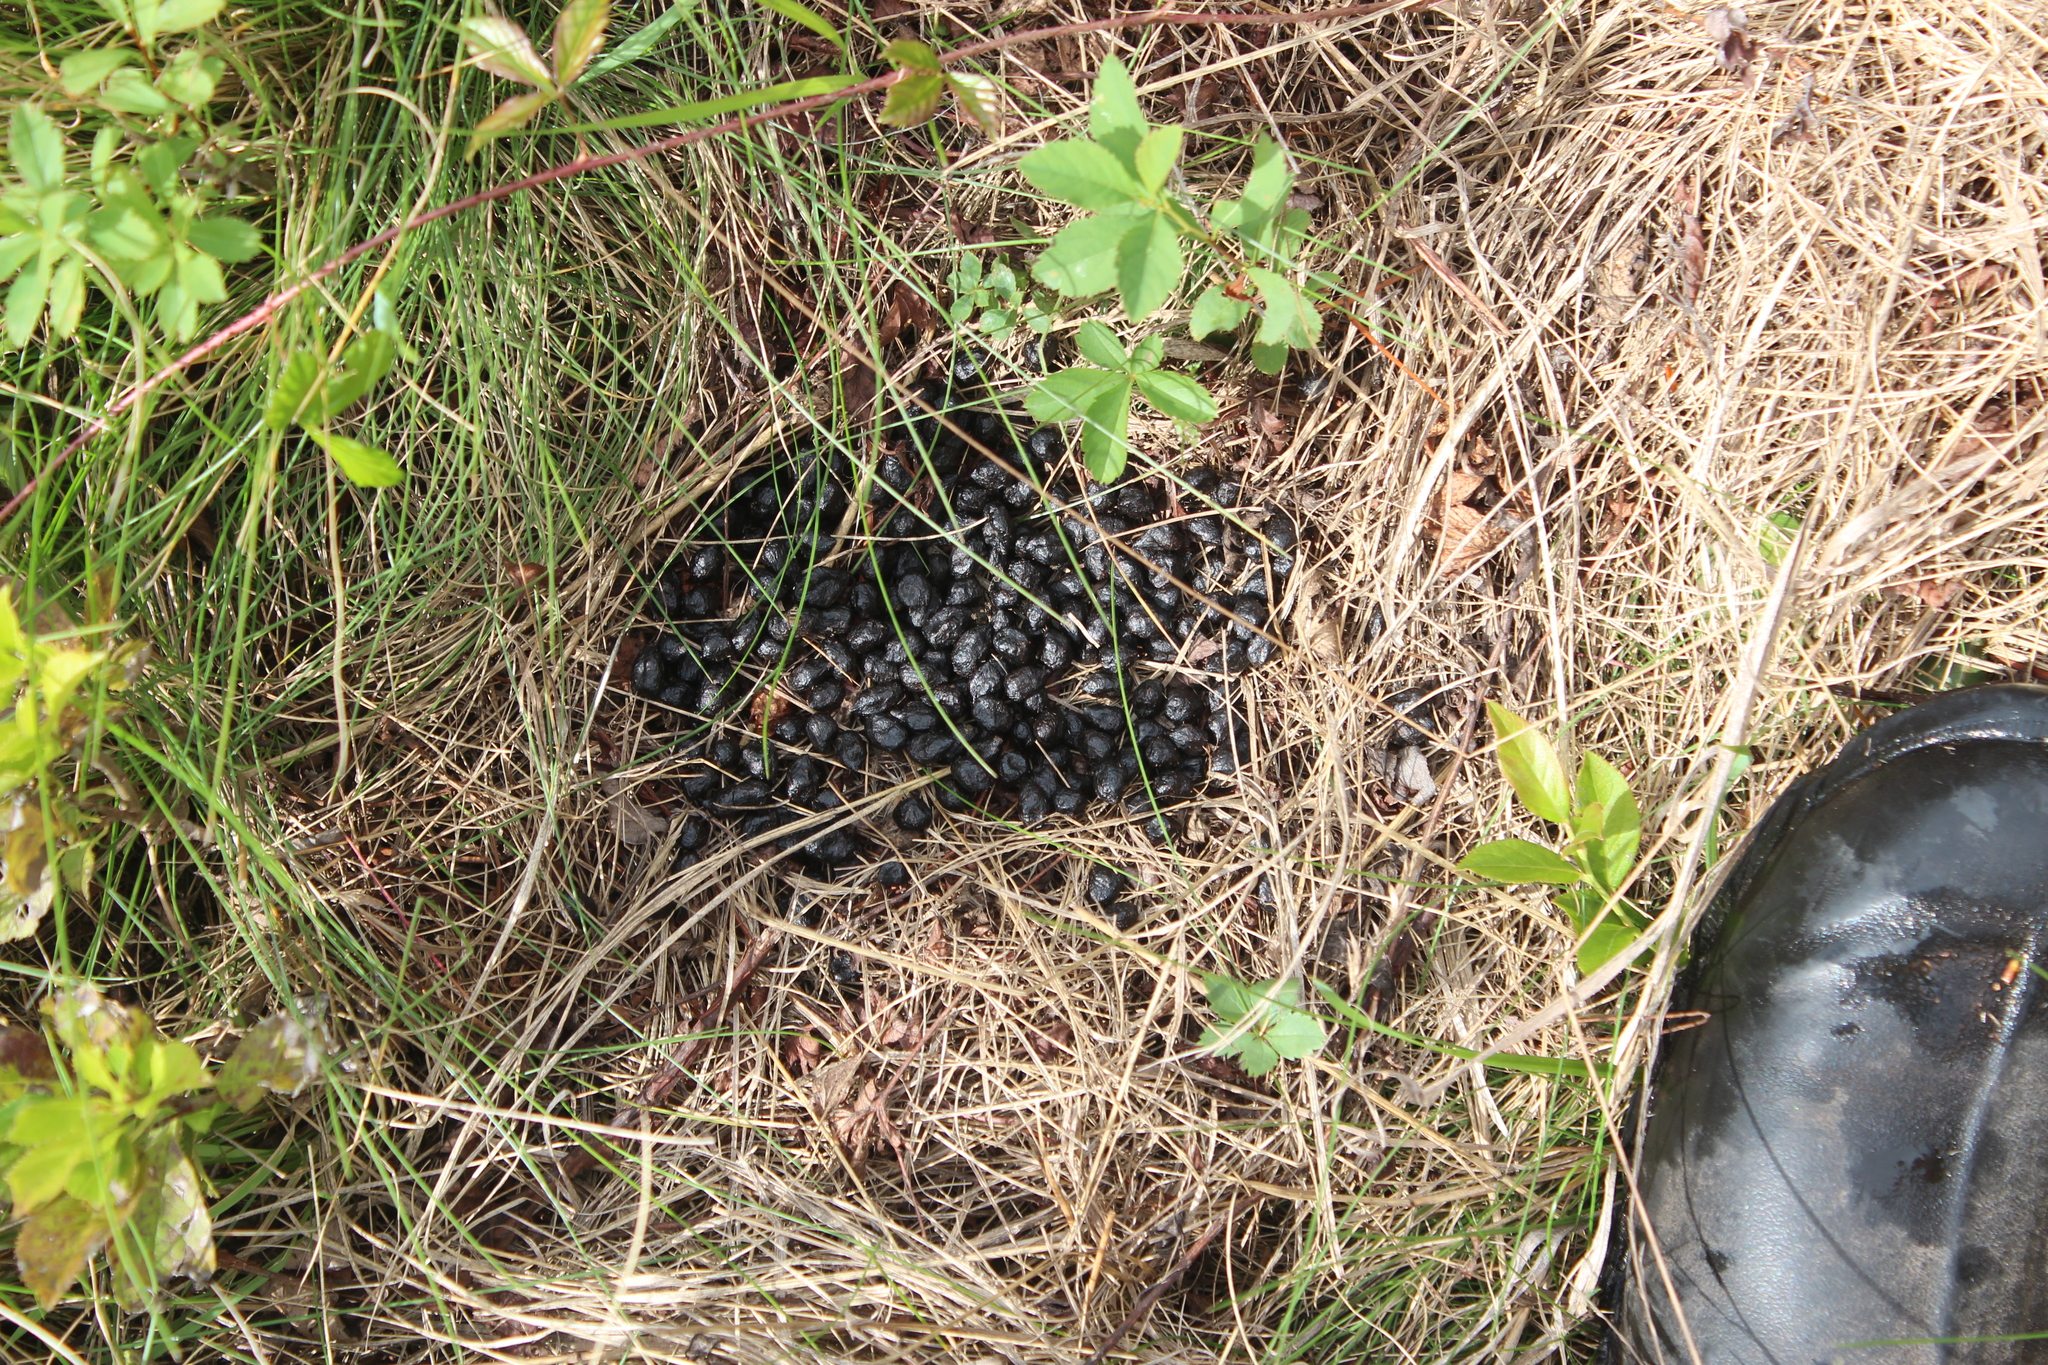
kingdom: Animalia
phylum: Chordata
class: Mammalia
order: Artiodactyla
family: Cervidae
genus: Odocoileus
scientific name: Odocoileus virginianus
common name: White-tailed deer
